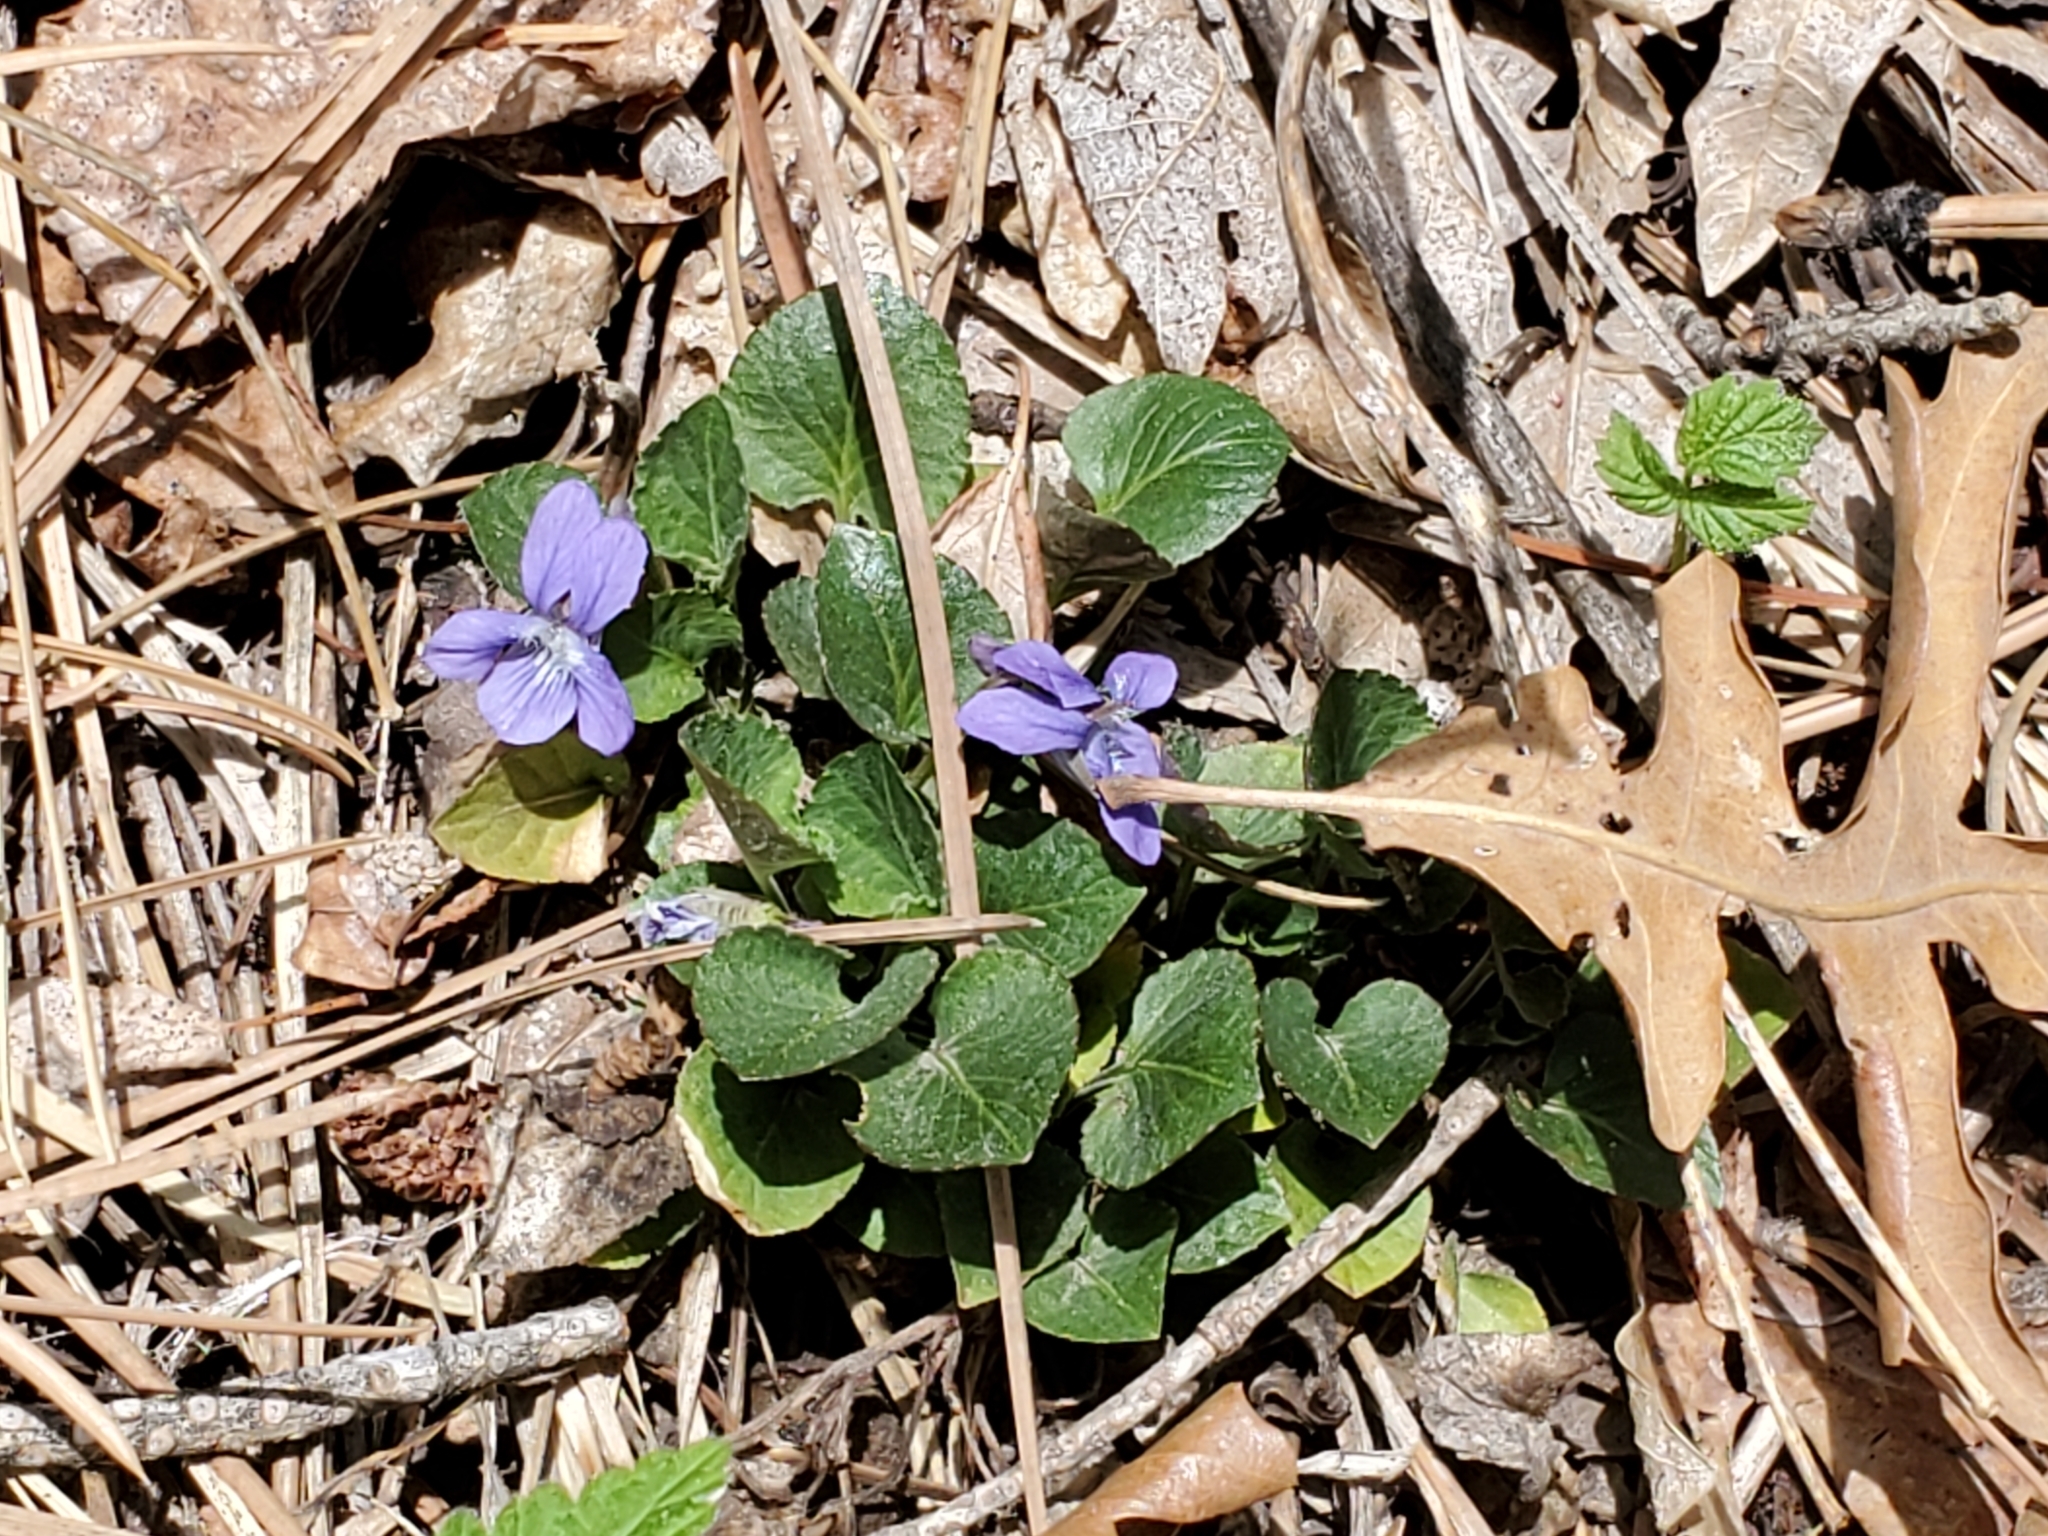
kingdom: Plantae
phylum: Tracheophyta
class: Magnoliopsida
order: Malpighiales
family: Violaceae
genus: Viola
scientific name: Viola adunca
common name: Sand violet
